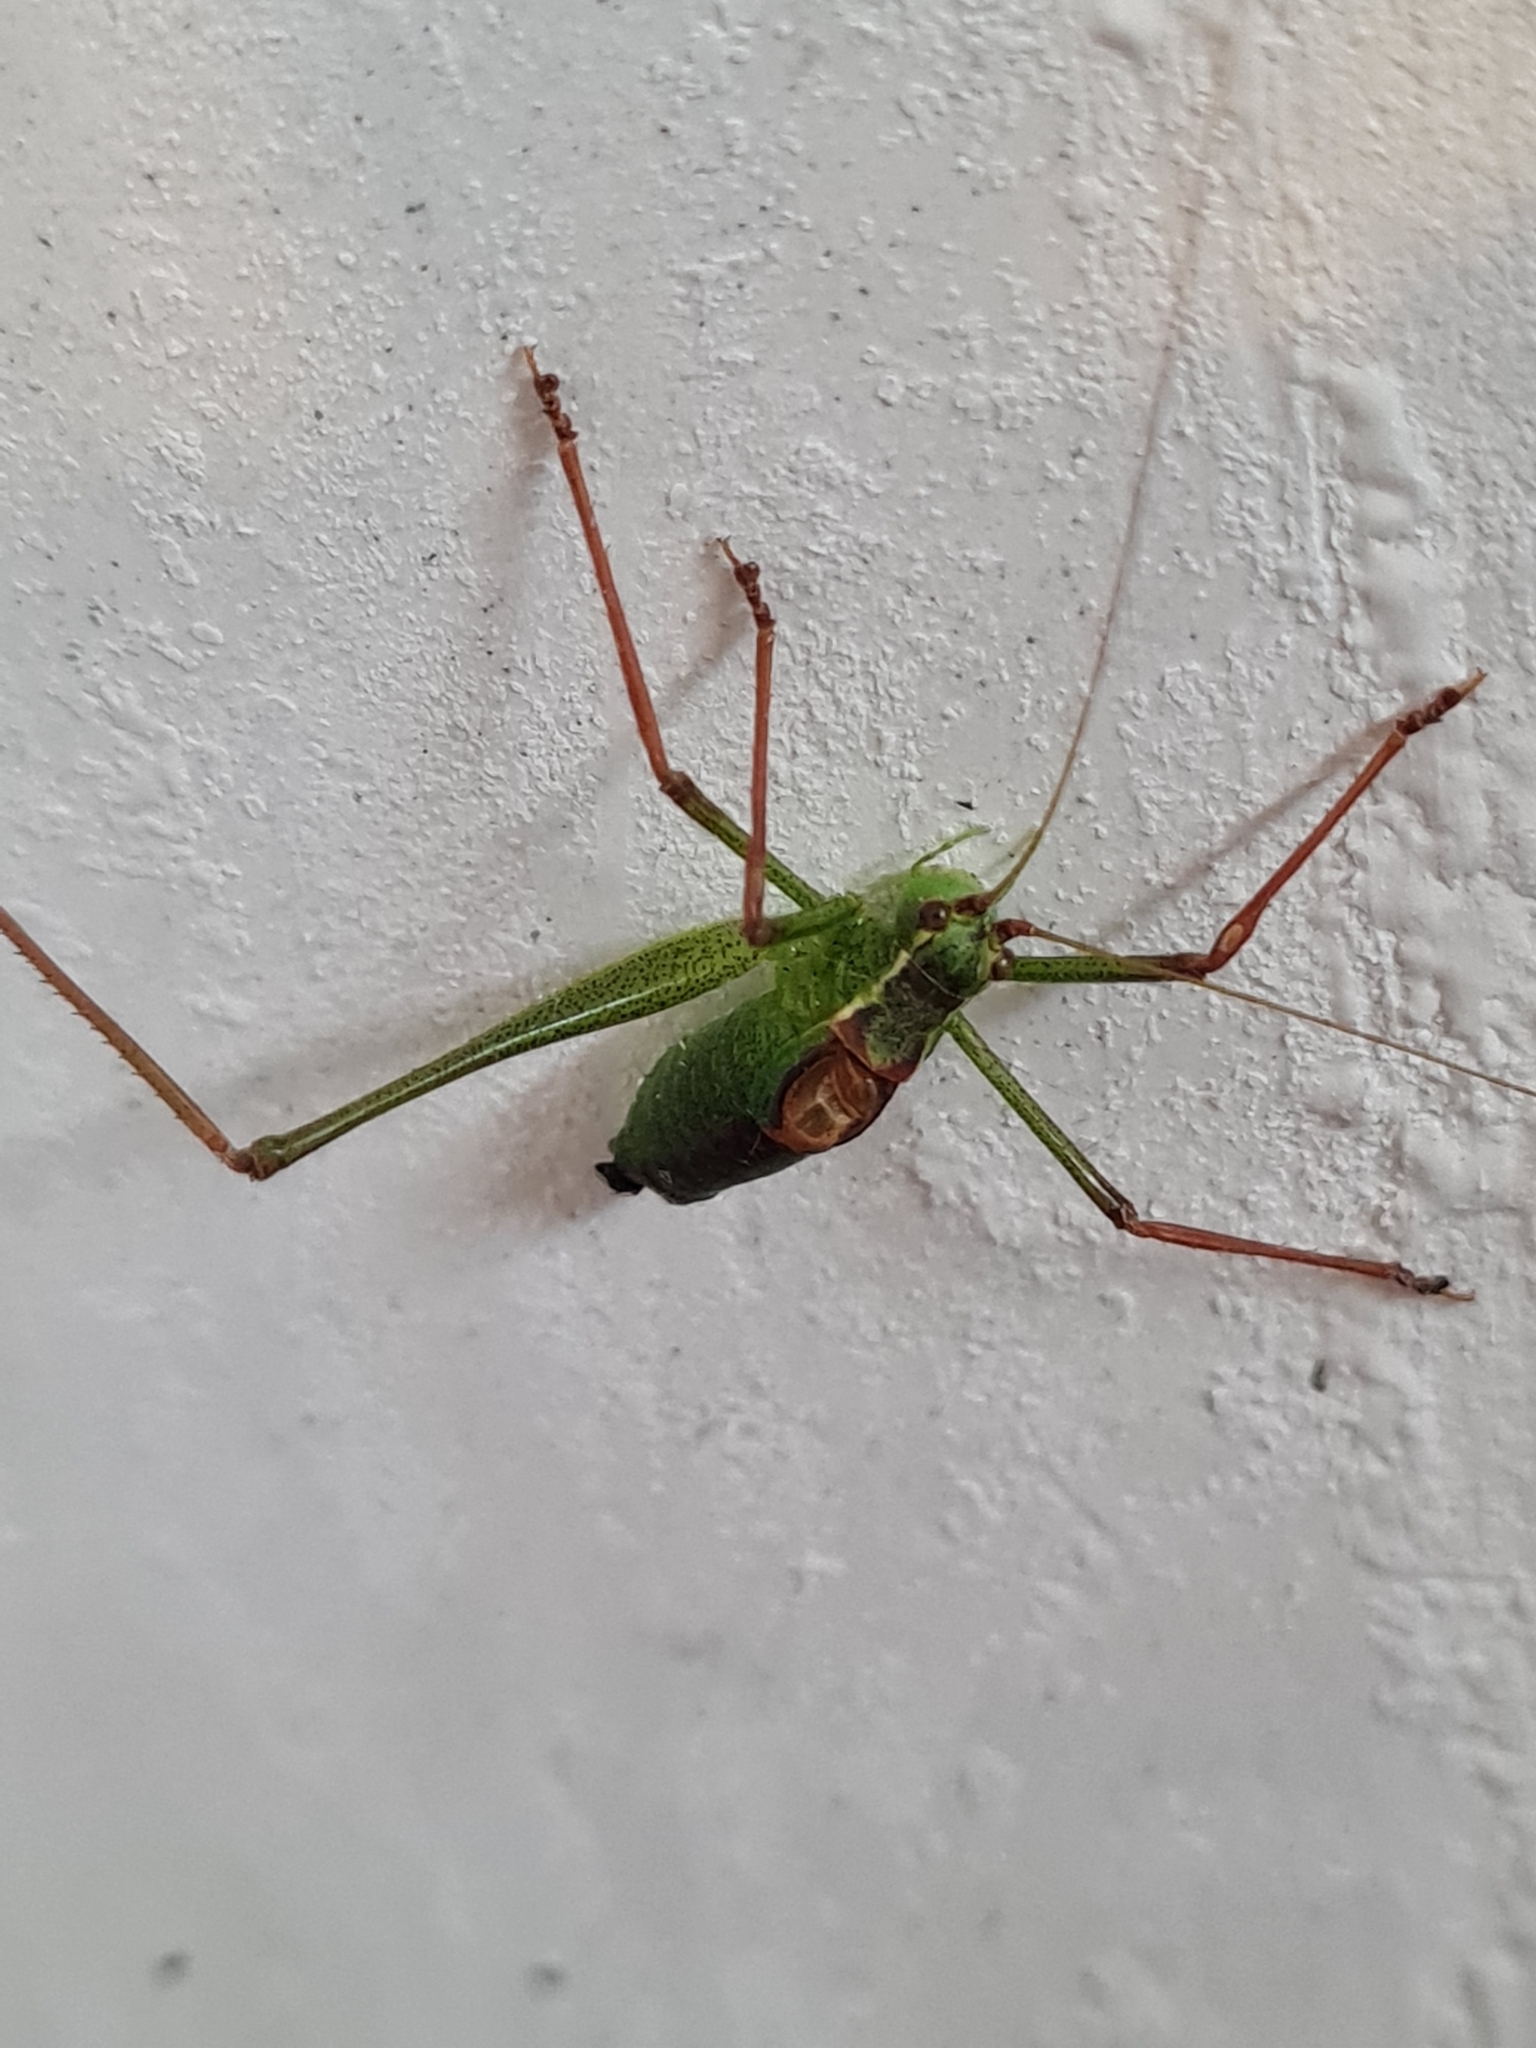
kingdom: Animalia
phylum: Arthropoda
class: Insecta
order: Orthoptera
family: Tettigoniidae
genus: Leptophyes
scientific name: Leptophyes punctatissima
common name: Speckled bush-cricket
